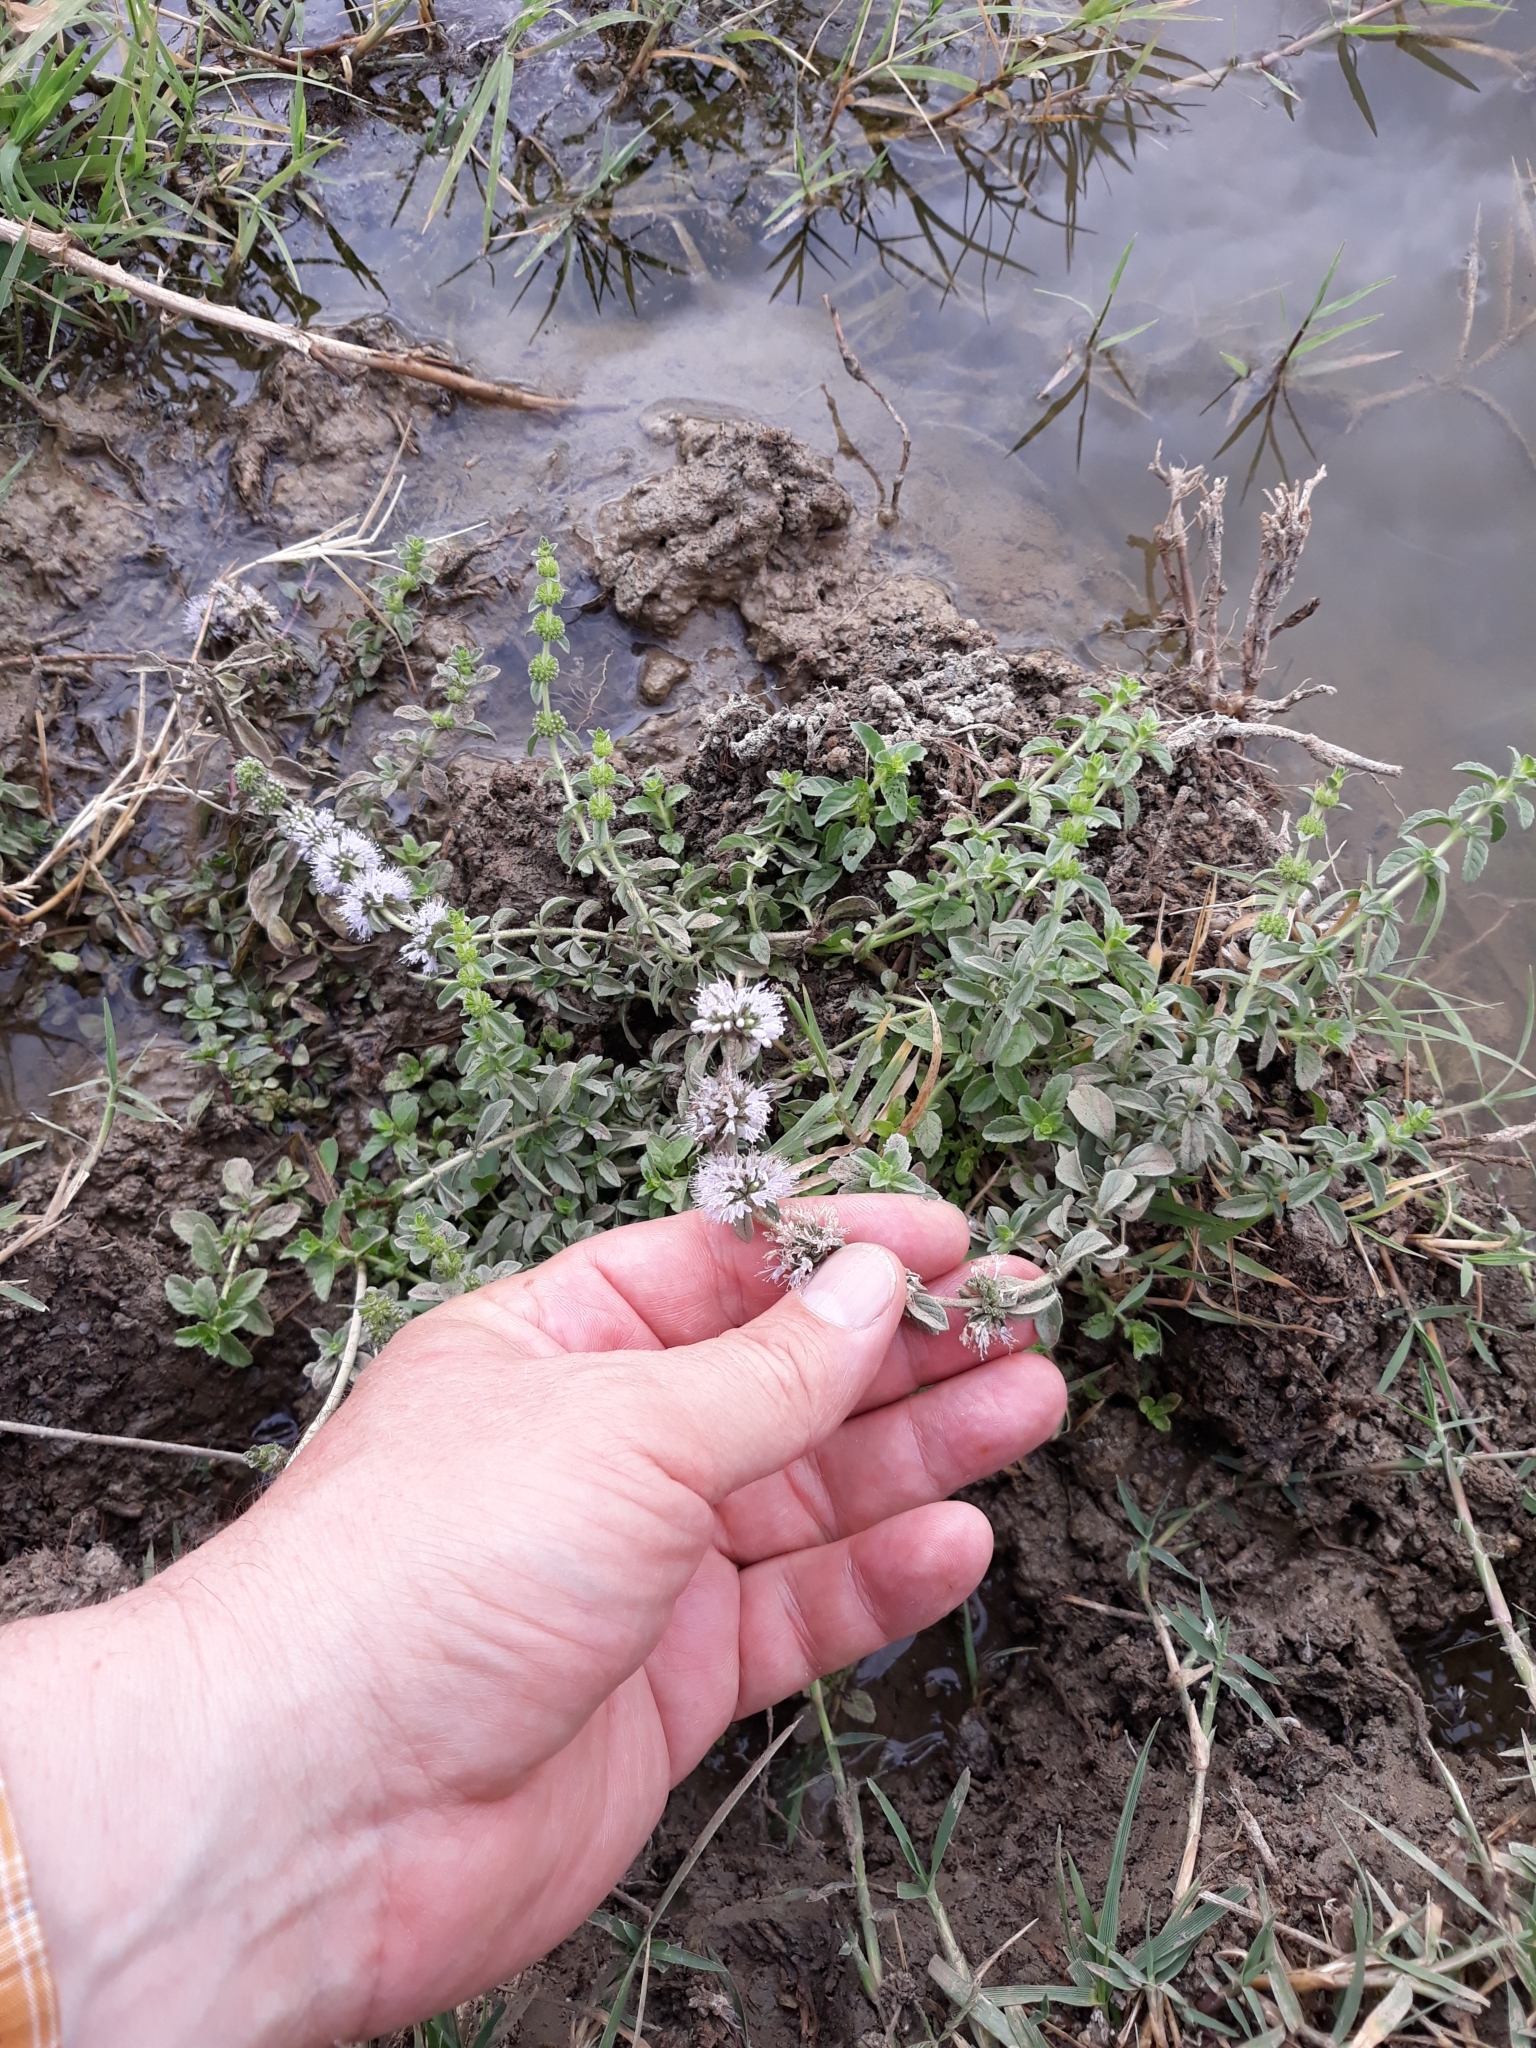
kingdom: Plantae
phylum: Tracheophyta
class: Magnoliopsida
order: Lamiales
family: Lamiaceae
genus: Mentha
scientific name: Mentha pulegium
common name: Pennyroyal
